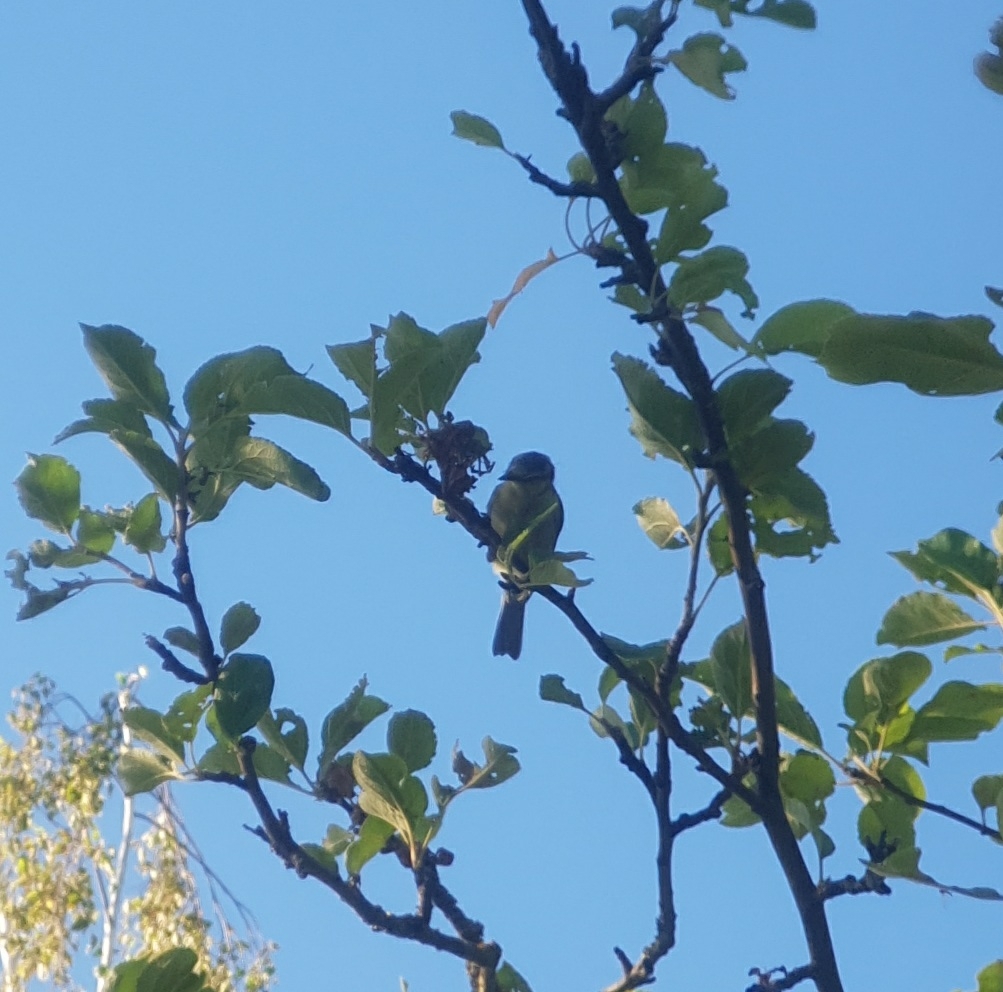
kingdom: Animalia
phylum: Chordata
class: Aves
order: Passeriformes
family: Paridae
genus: Cyanistes
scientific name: Cyanistes caeruleus
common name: Eurasian blue tit
